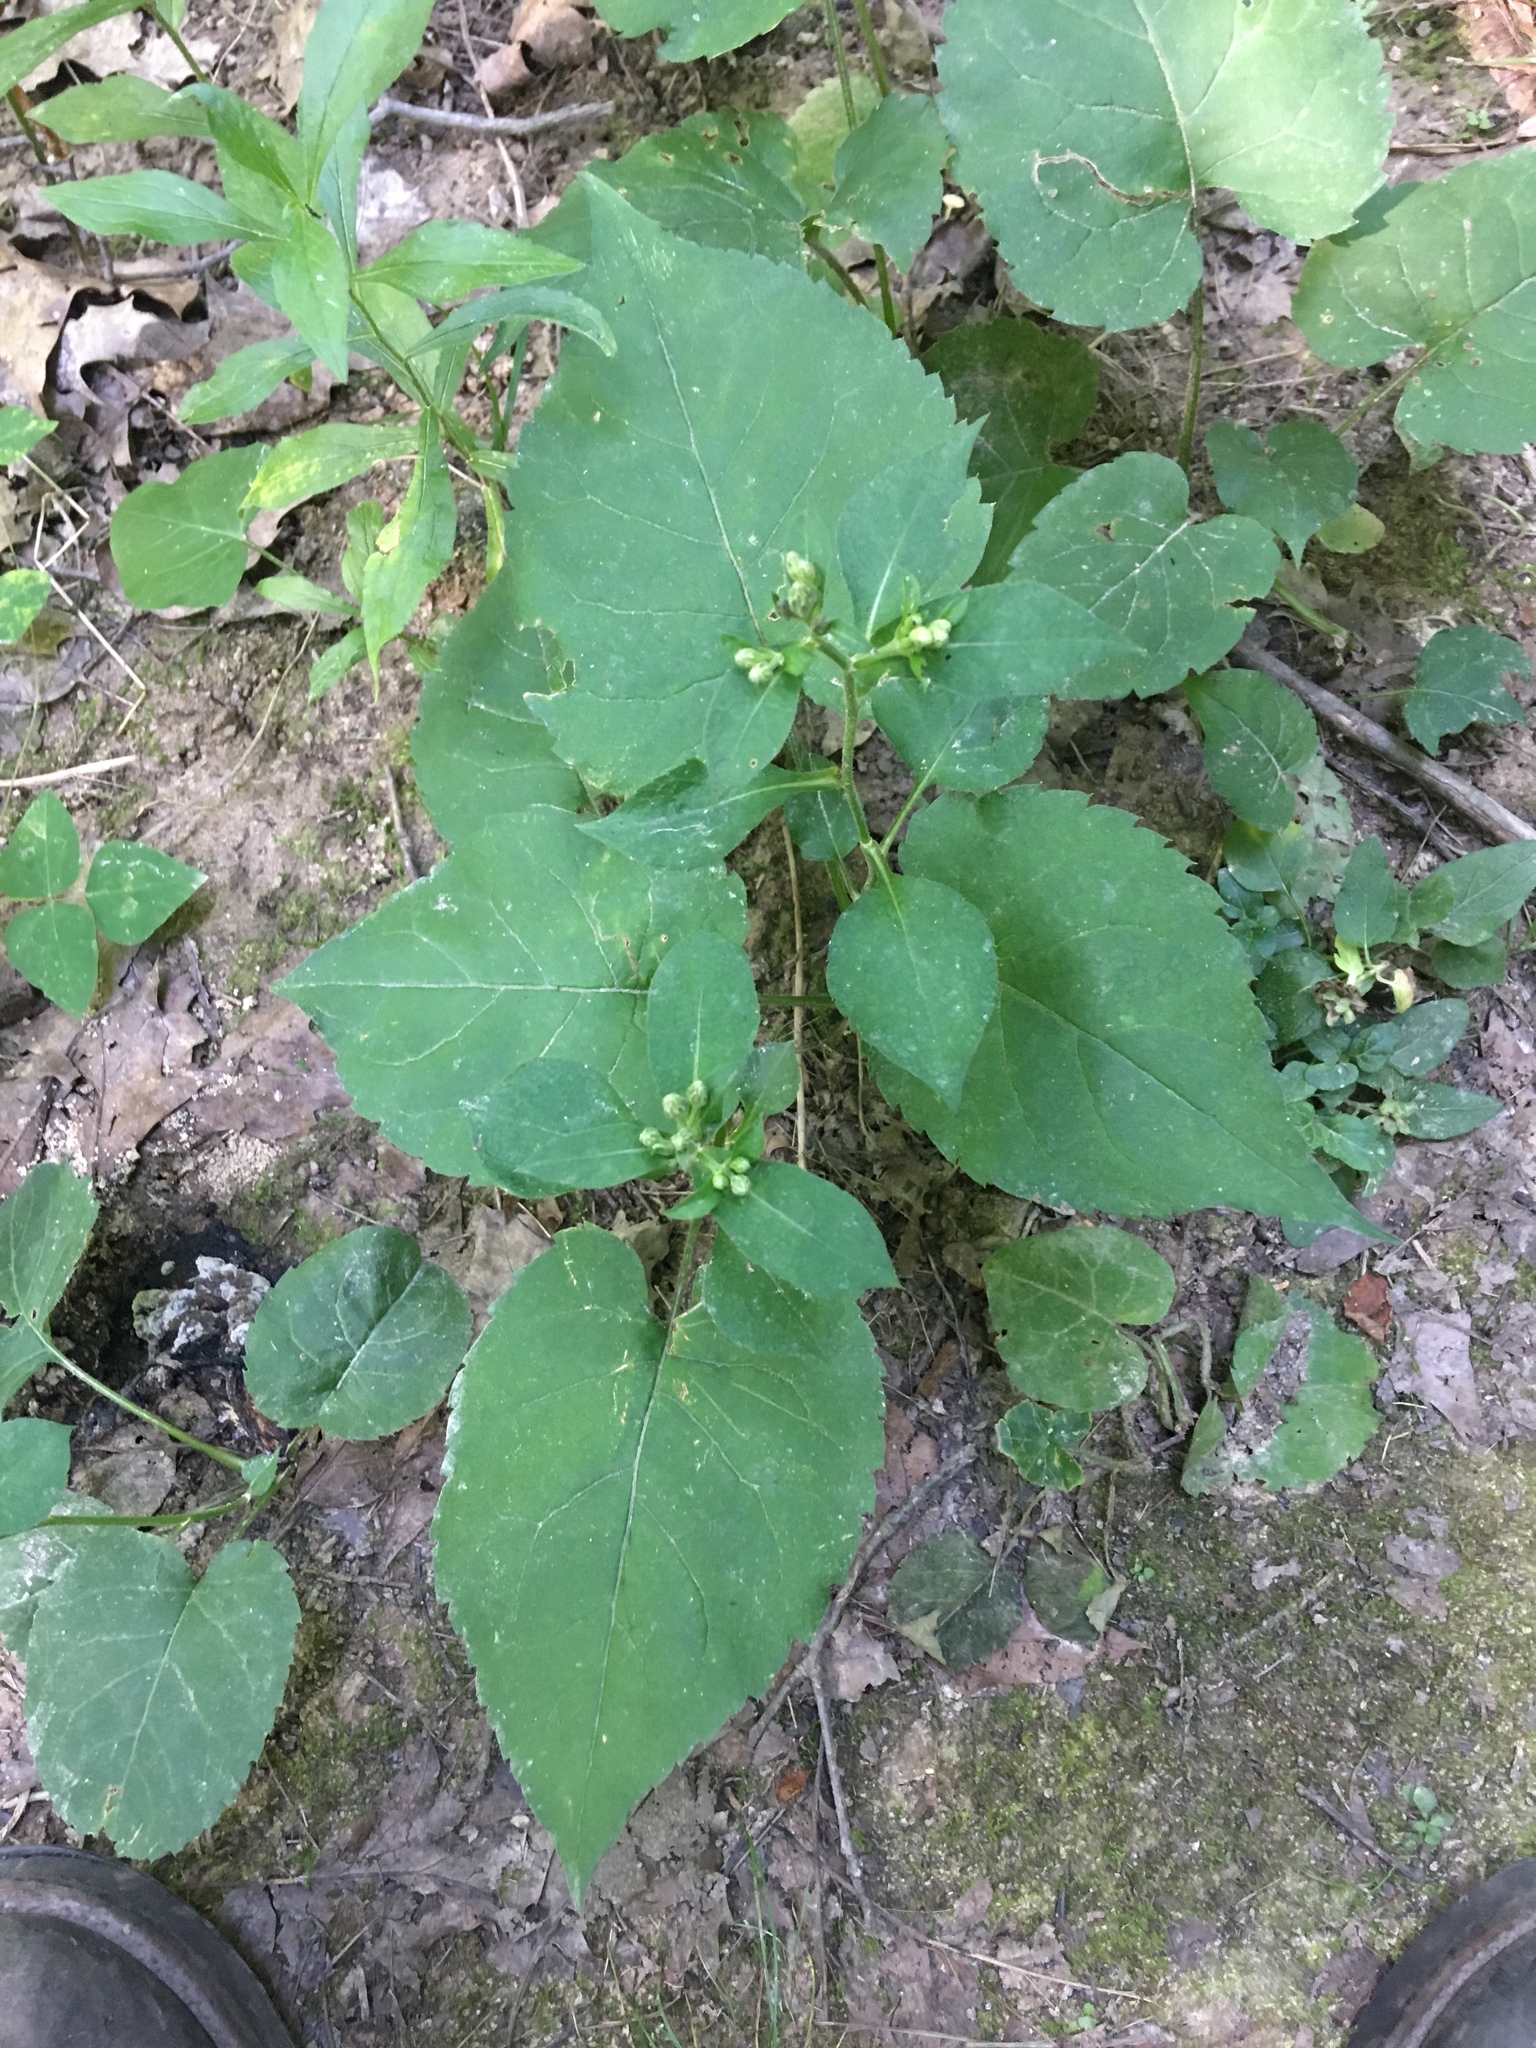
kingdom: Plantae
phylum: Tracheophyta
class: Magnoliopsida
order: Asterales
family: Asteraceae
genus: Eurybia
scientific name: Eurybia macrophylla
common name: Big-leaved aster
